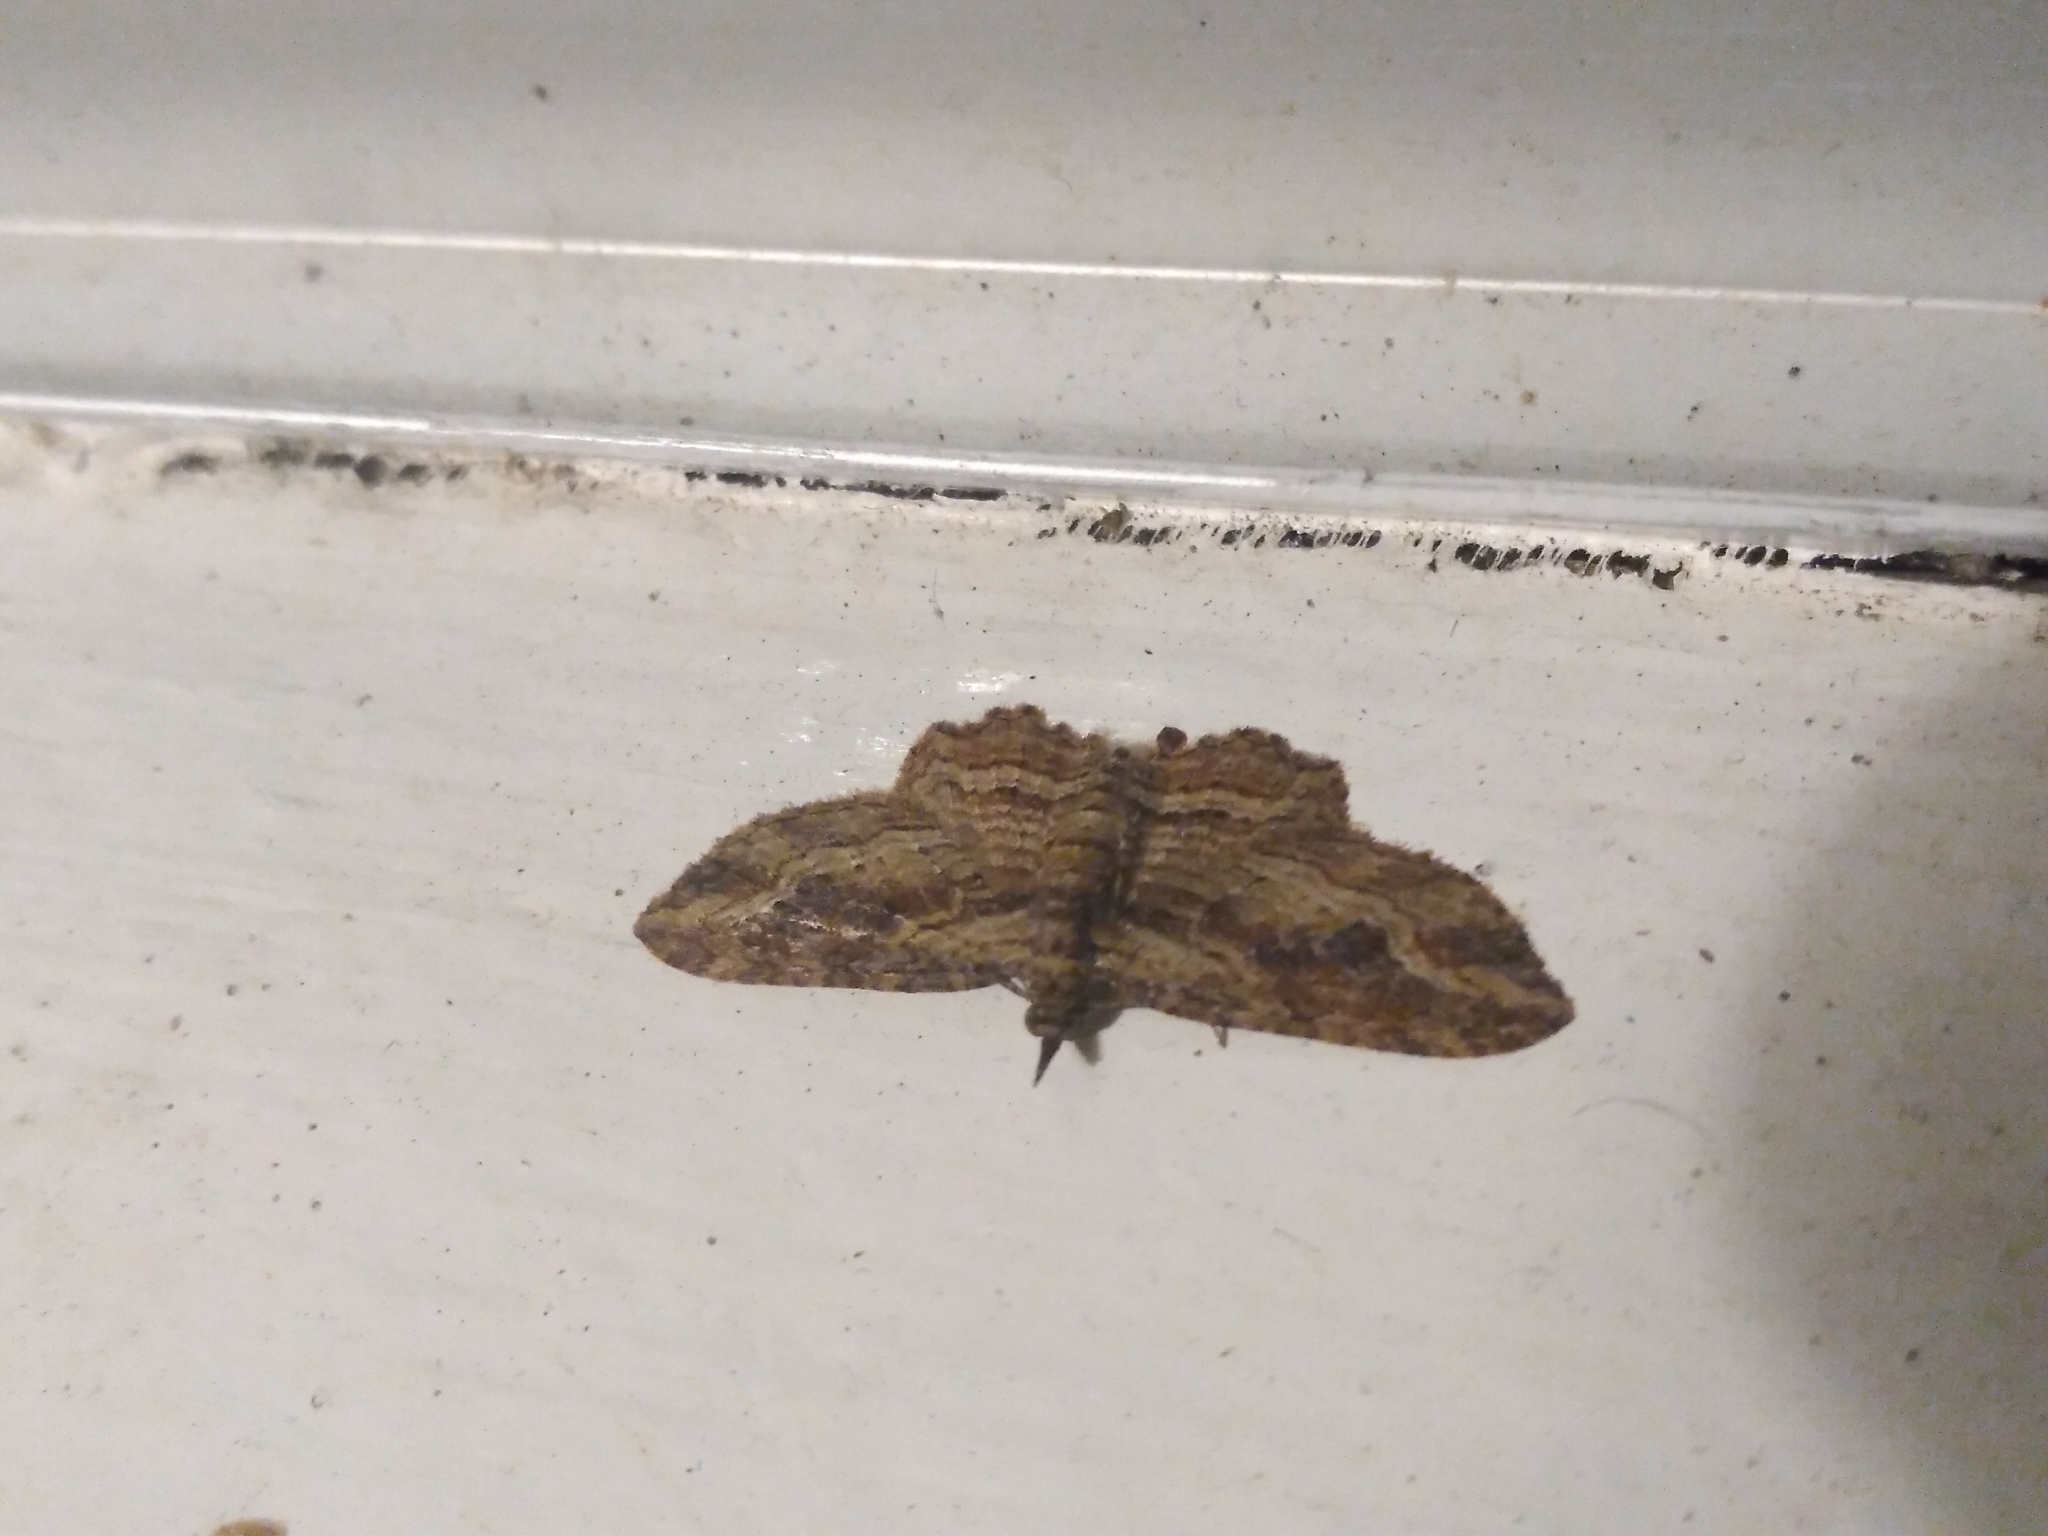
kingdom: Animalia
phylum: Arthropoda
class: Insecta
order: Lepidoptera
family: Geometridae
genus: Chloroclystis
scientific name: Chloroclystis filata
